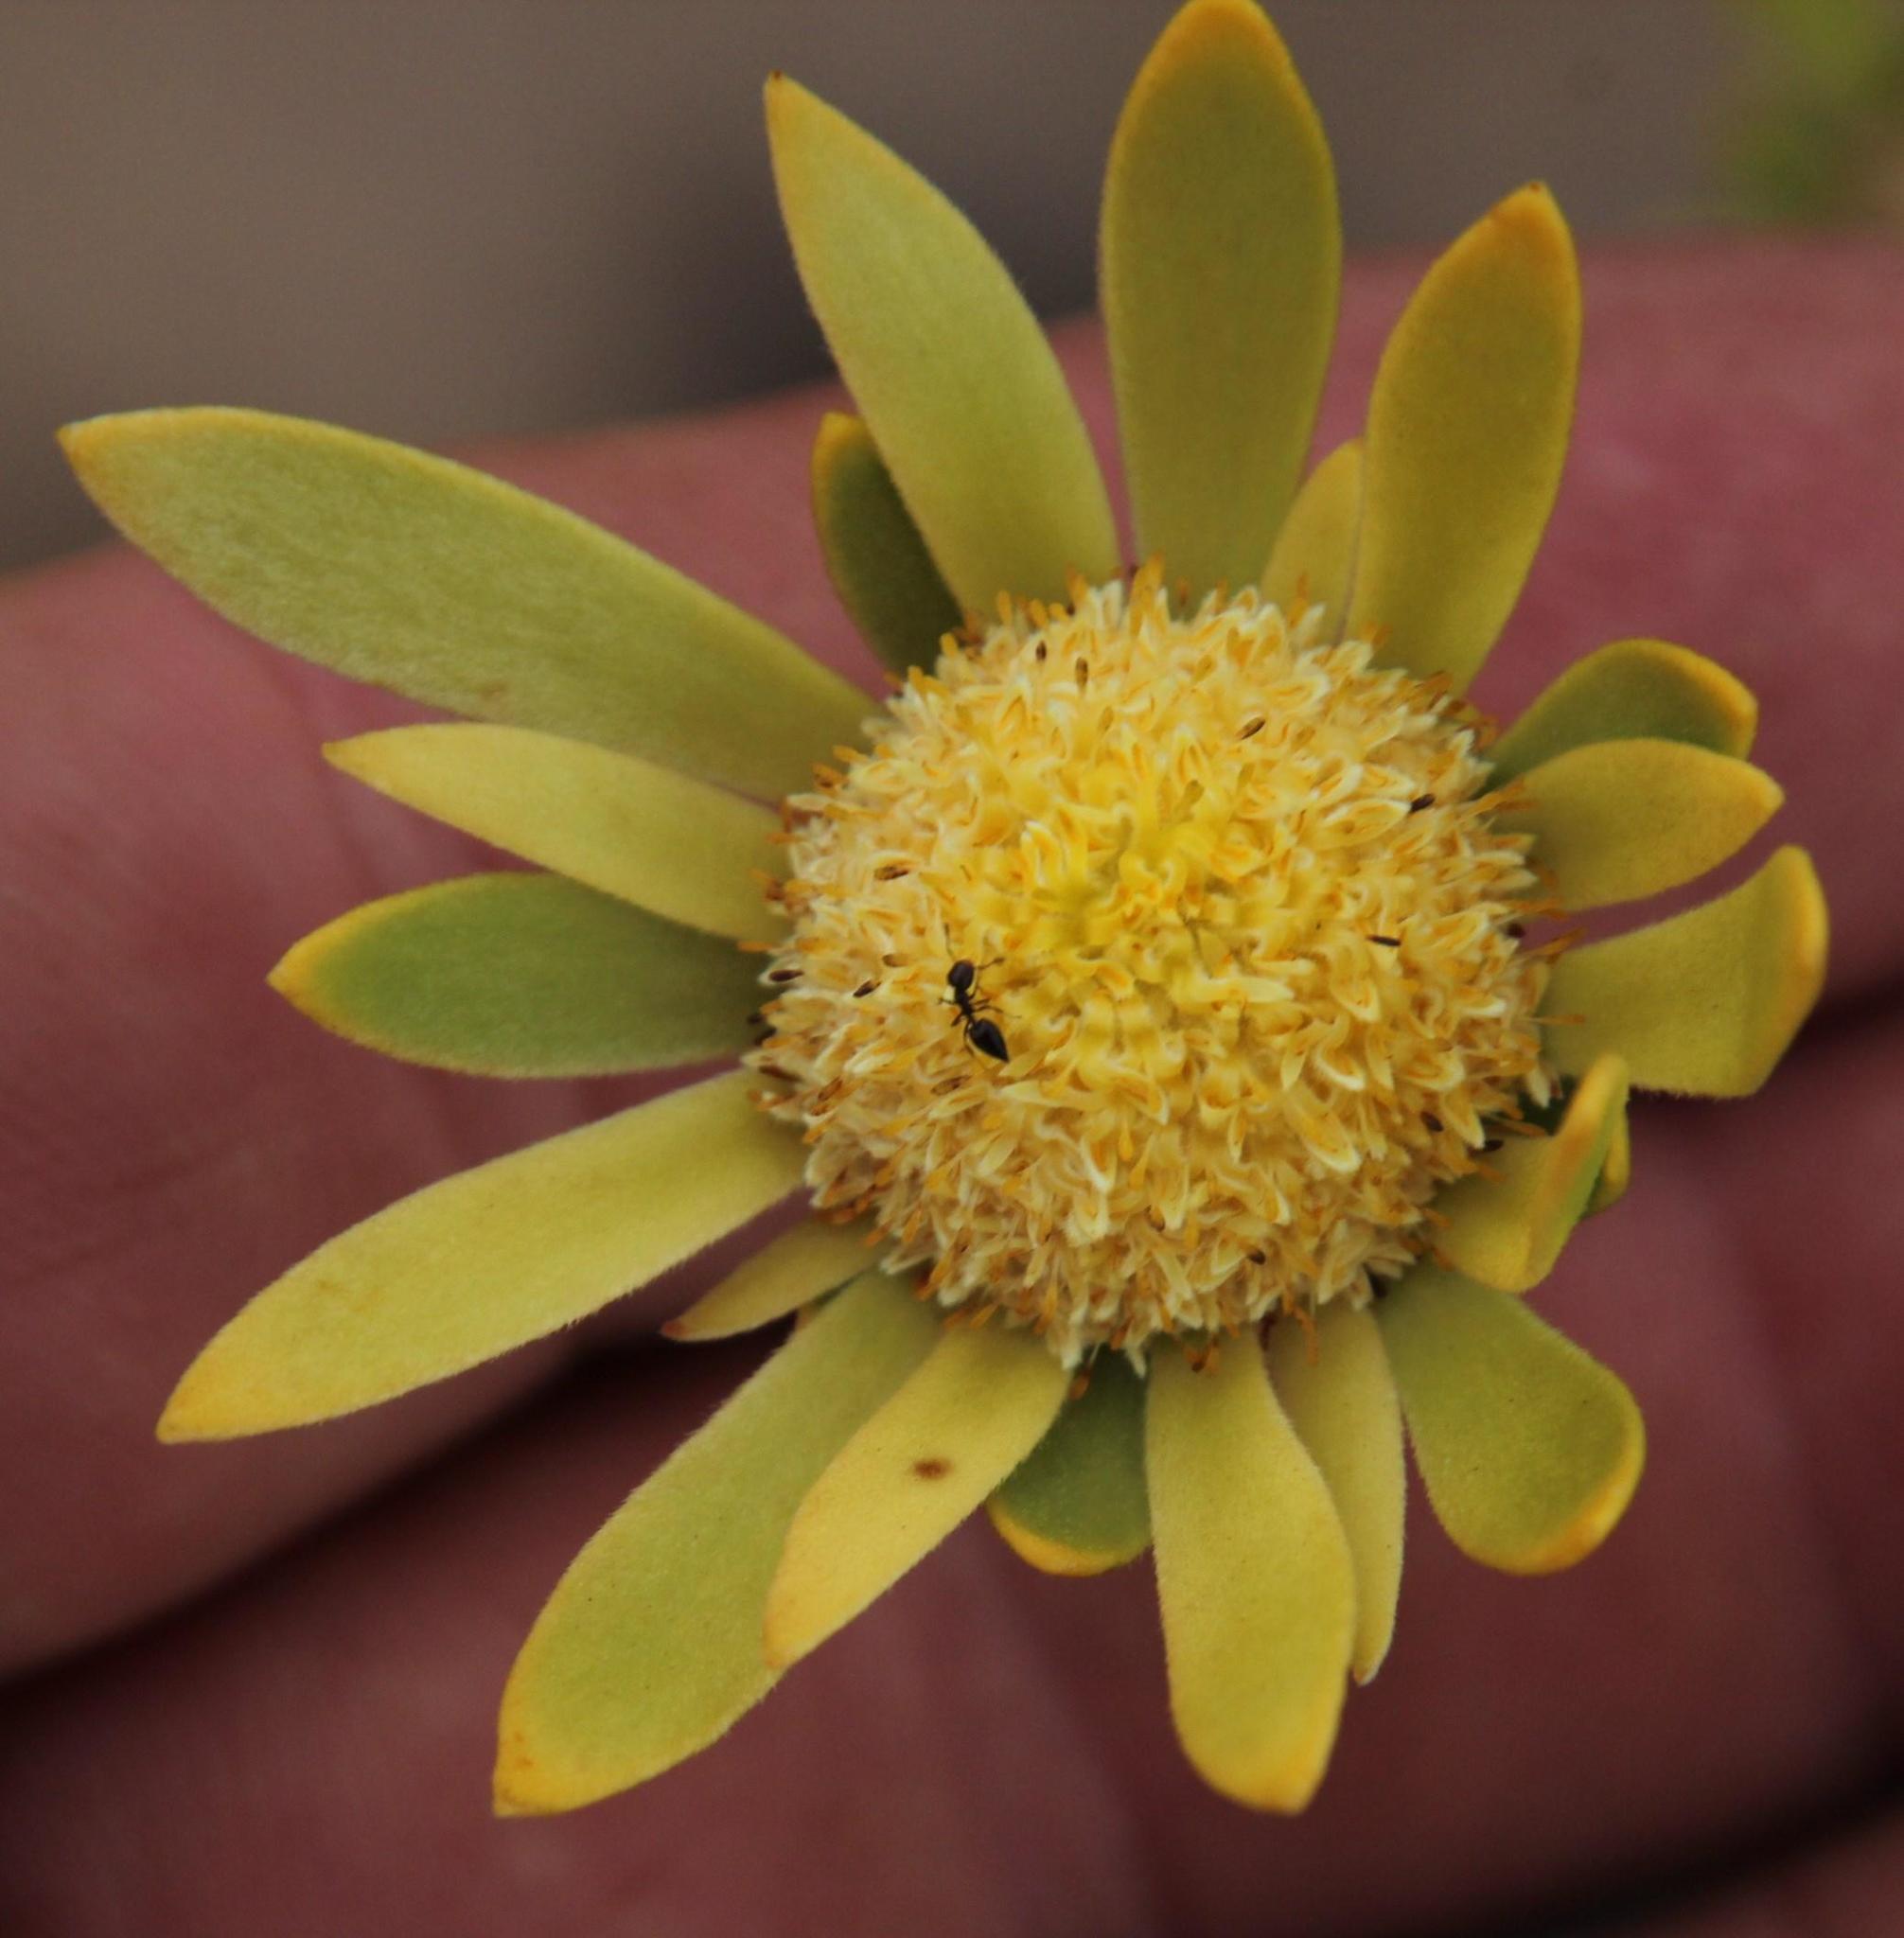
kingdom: Plantae
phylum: Tracheophyta
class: Magnoliopsida
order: Proteales
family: Proteaceae
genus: Leucadendron
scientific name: Leucadendron nitidum
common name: Bokkeveld conebush
